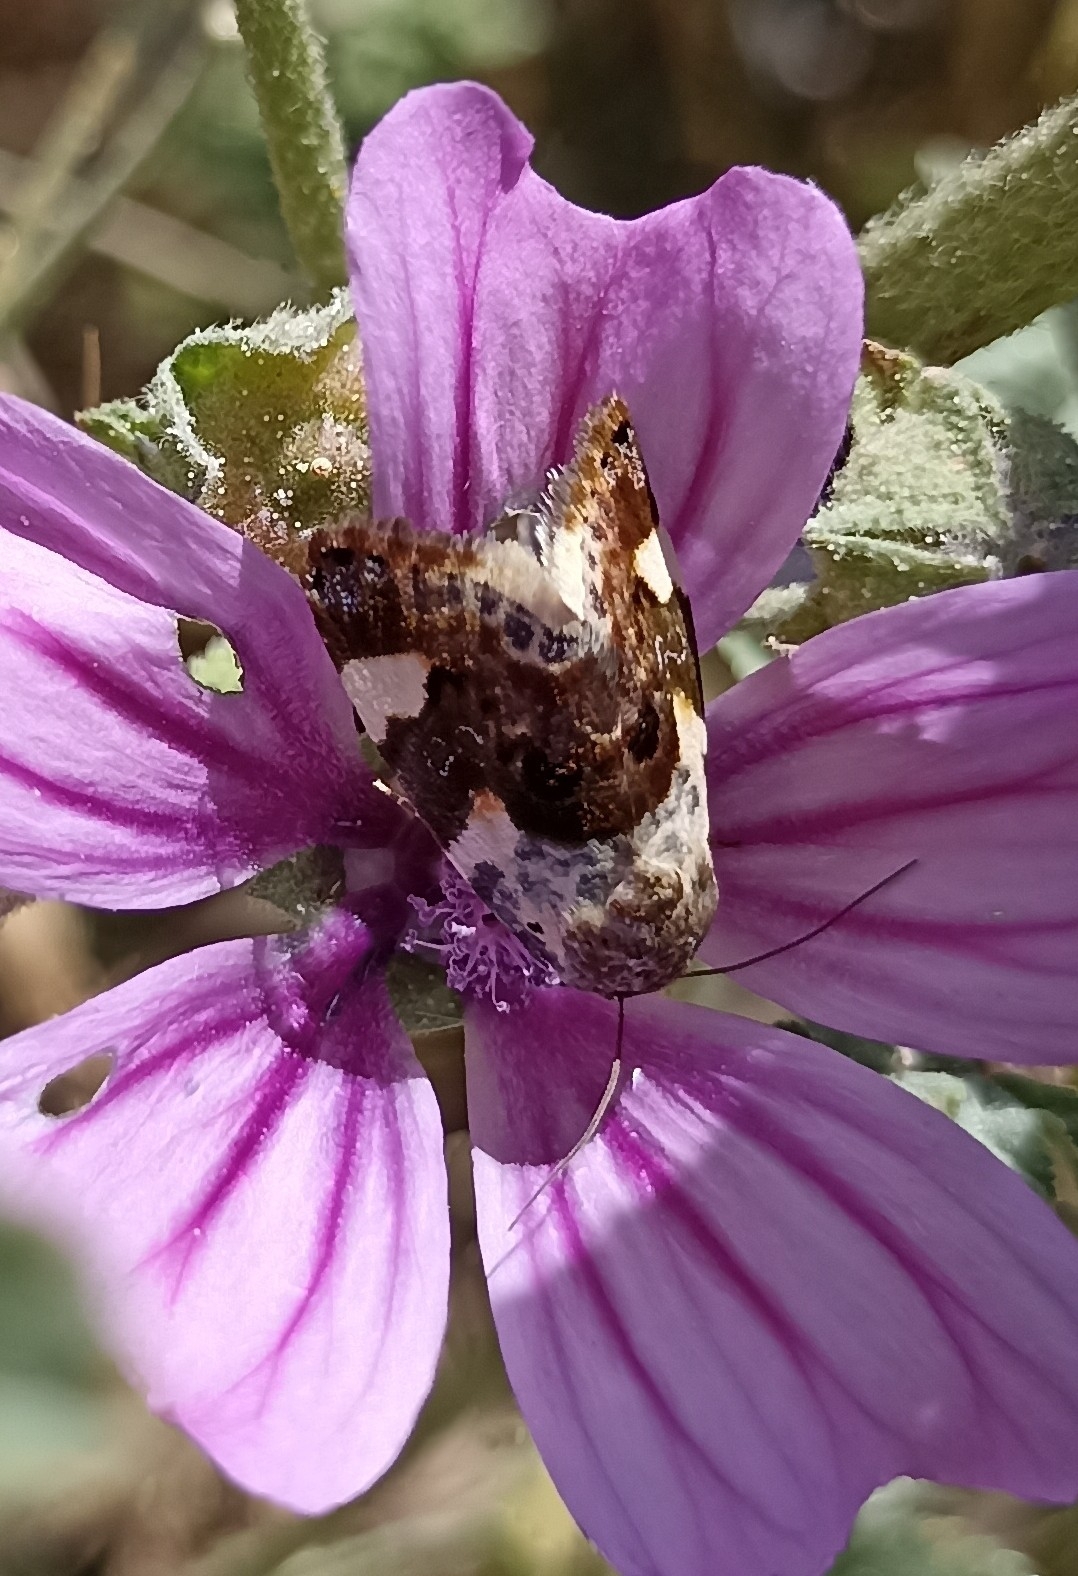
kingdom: Animalia
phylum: Arthropoda
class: Insecta
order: Lepidoptera
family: Noctuidae
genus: Acontia
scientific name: Acontia lucida
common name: Pale shoulder
